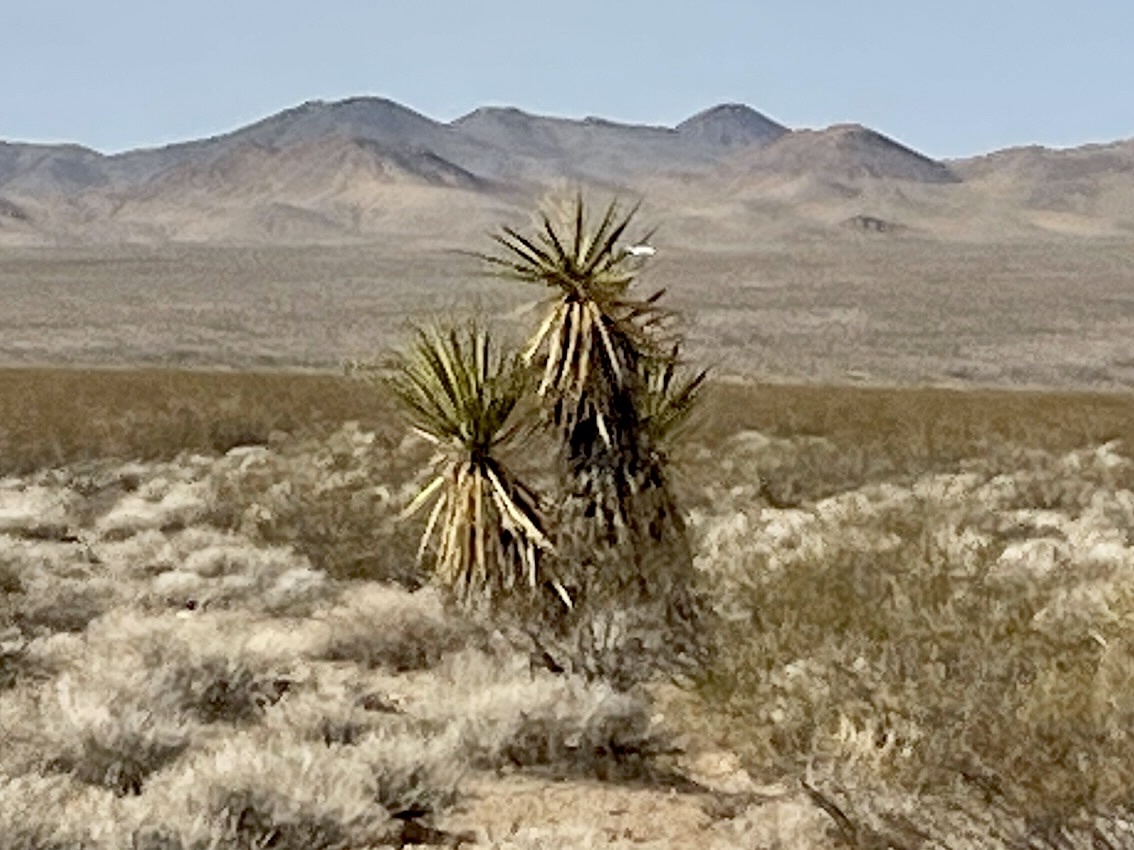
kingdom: Plantae
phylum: Tracheophyta
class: Liliopsida
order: Asparagales
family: Asparagaceae
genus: Yucca
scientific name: Yucca schidigera
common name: Mojave yucca
